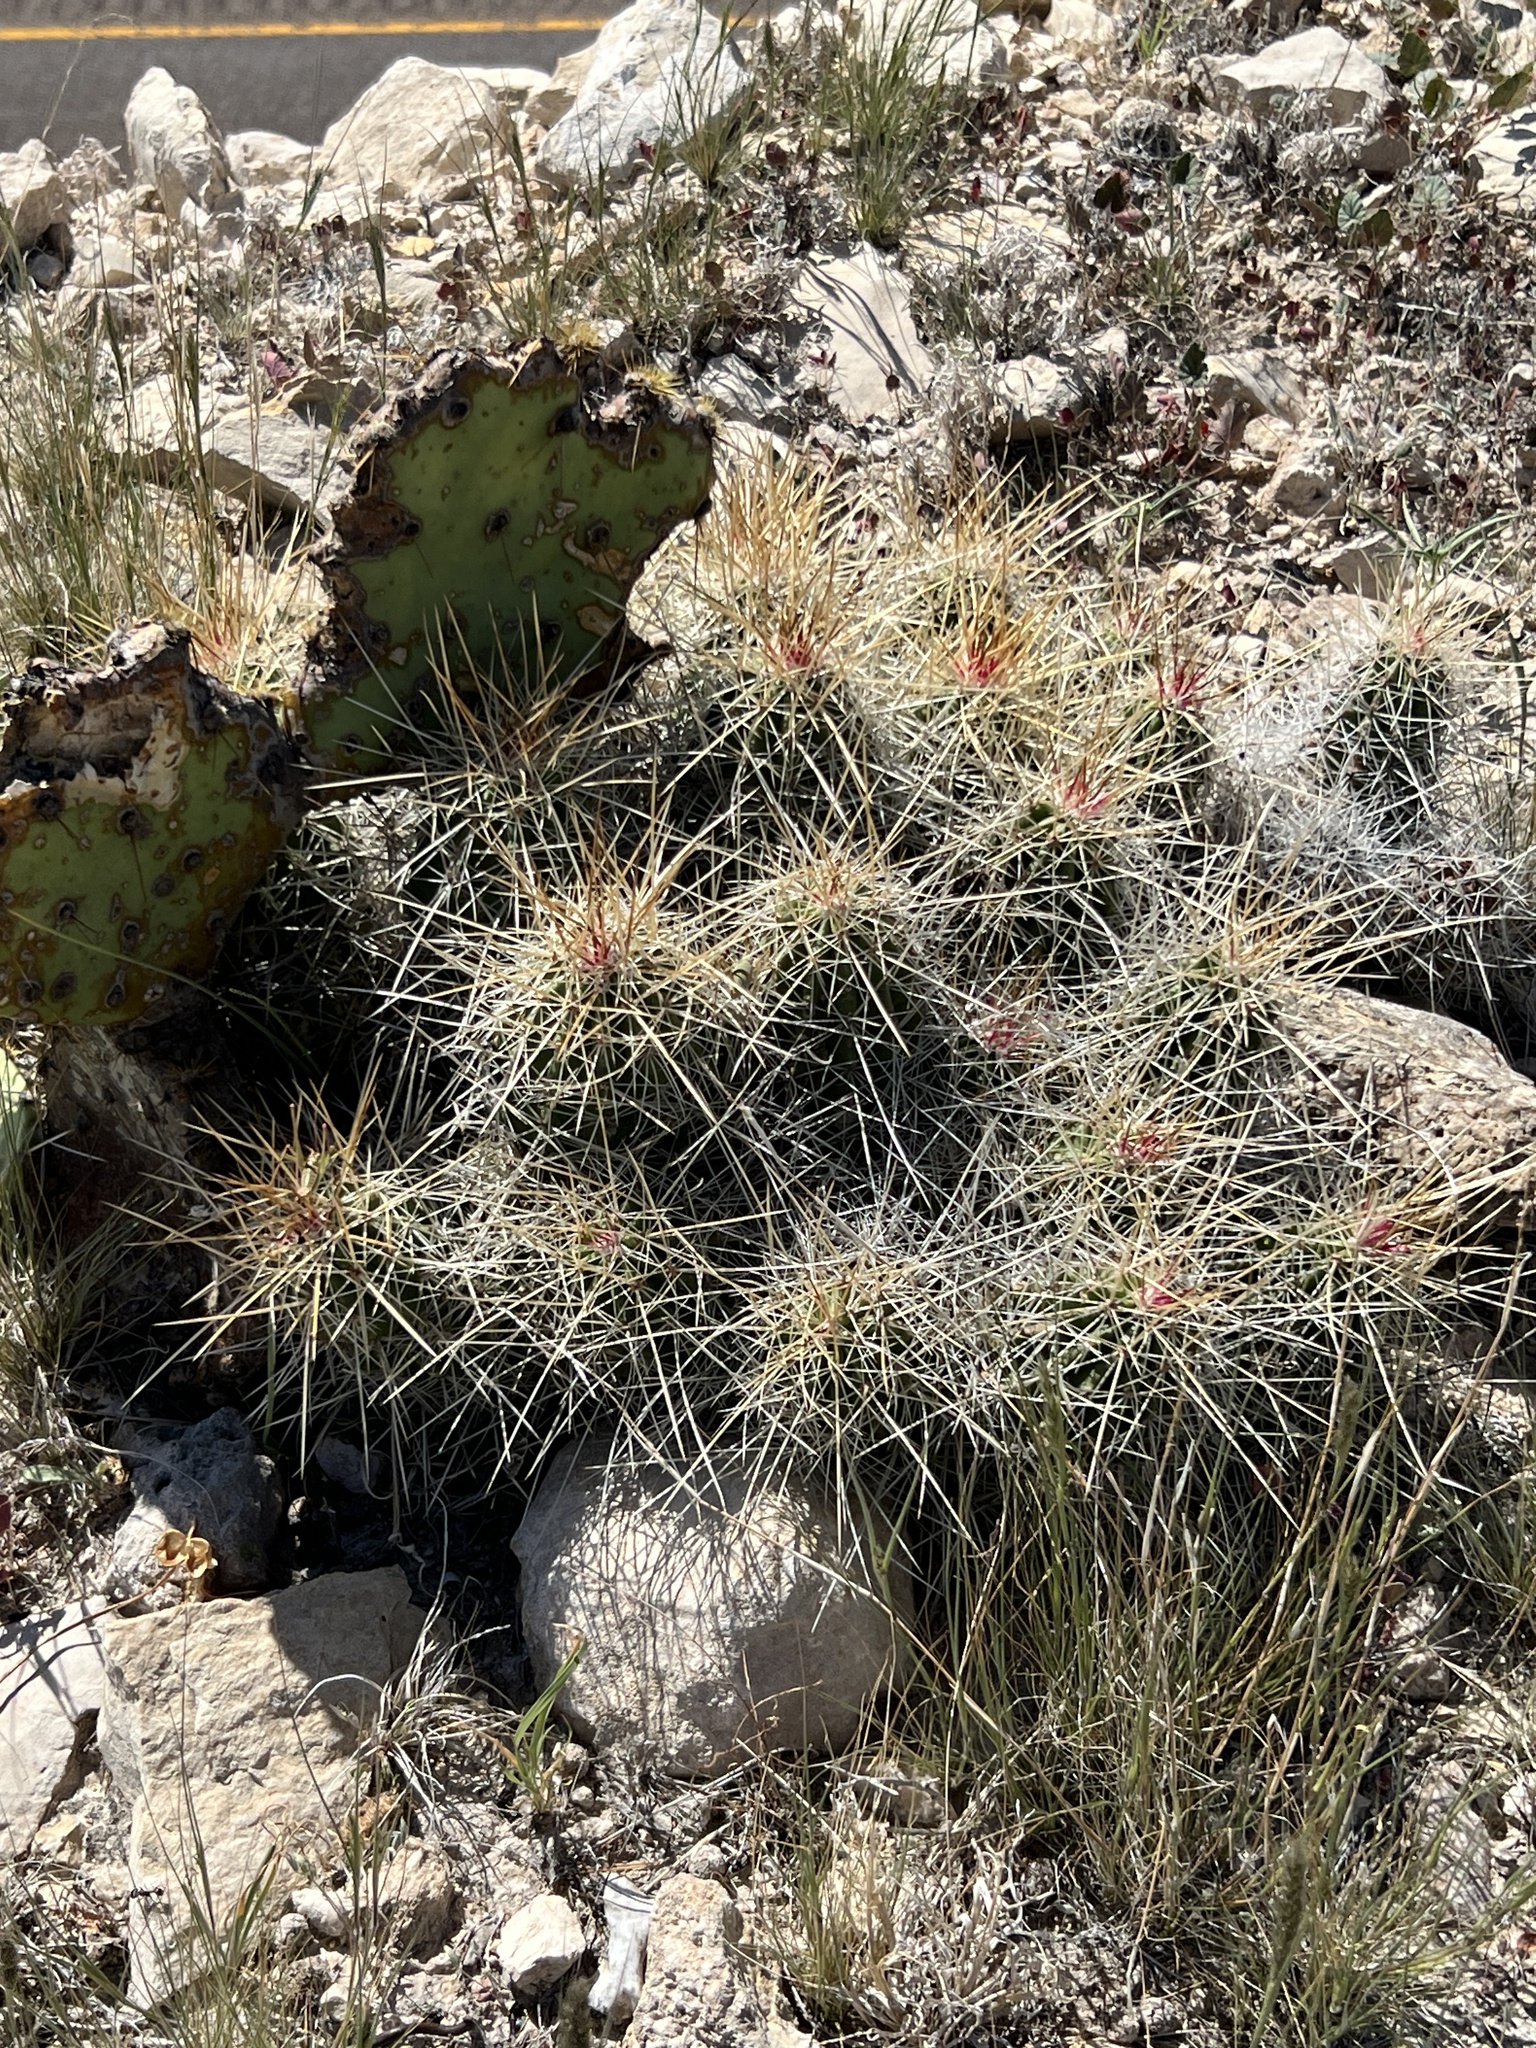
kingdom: Plantae
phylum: Tracheophyta
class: Magnoliopsida
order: Caryophyllales
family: Cactaceae
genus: Echinocereus
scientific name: Echinocereus stramineus
